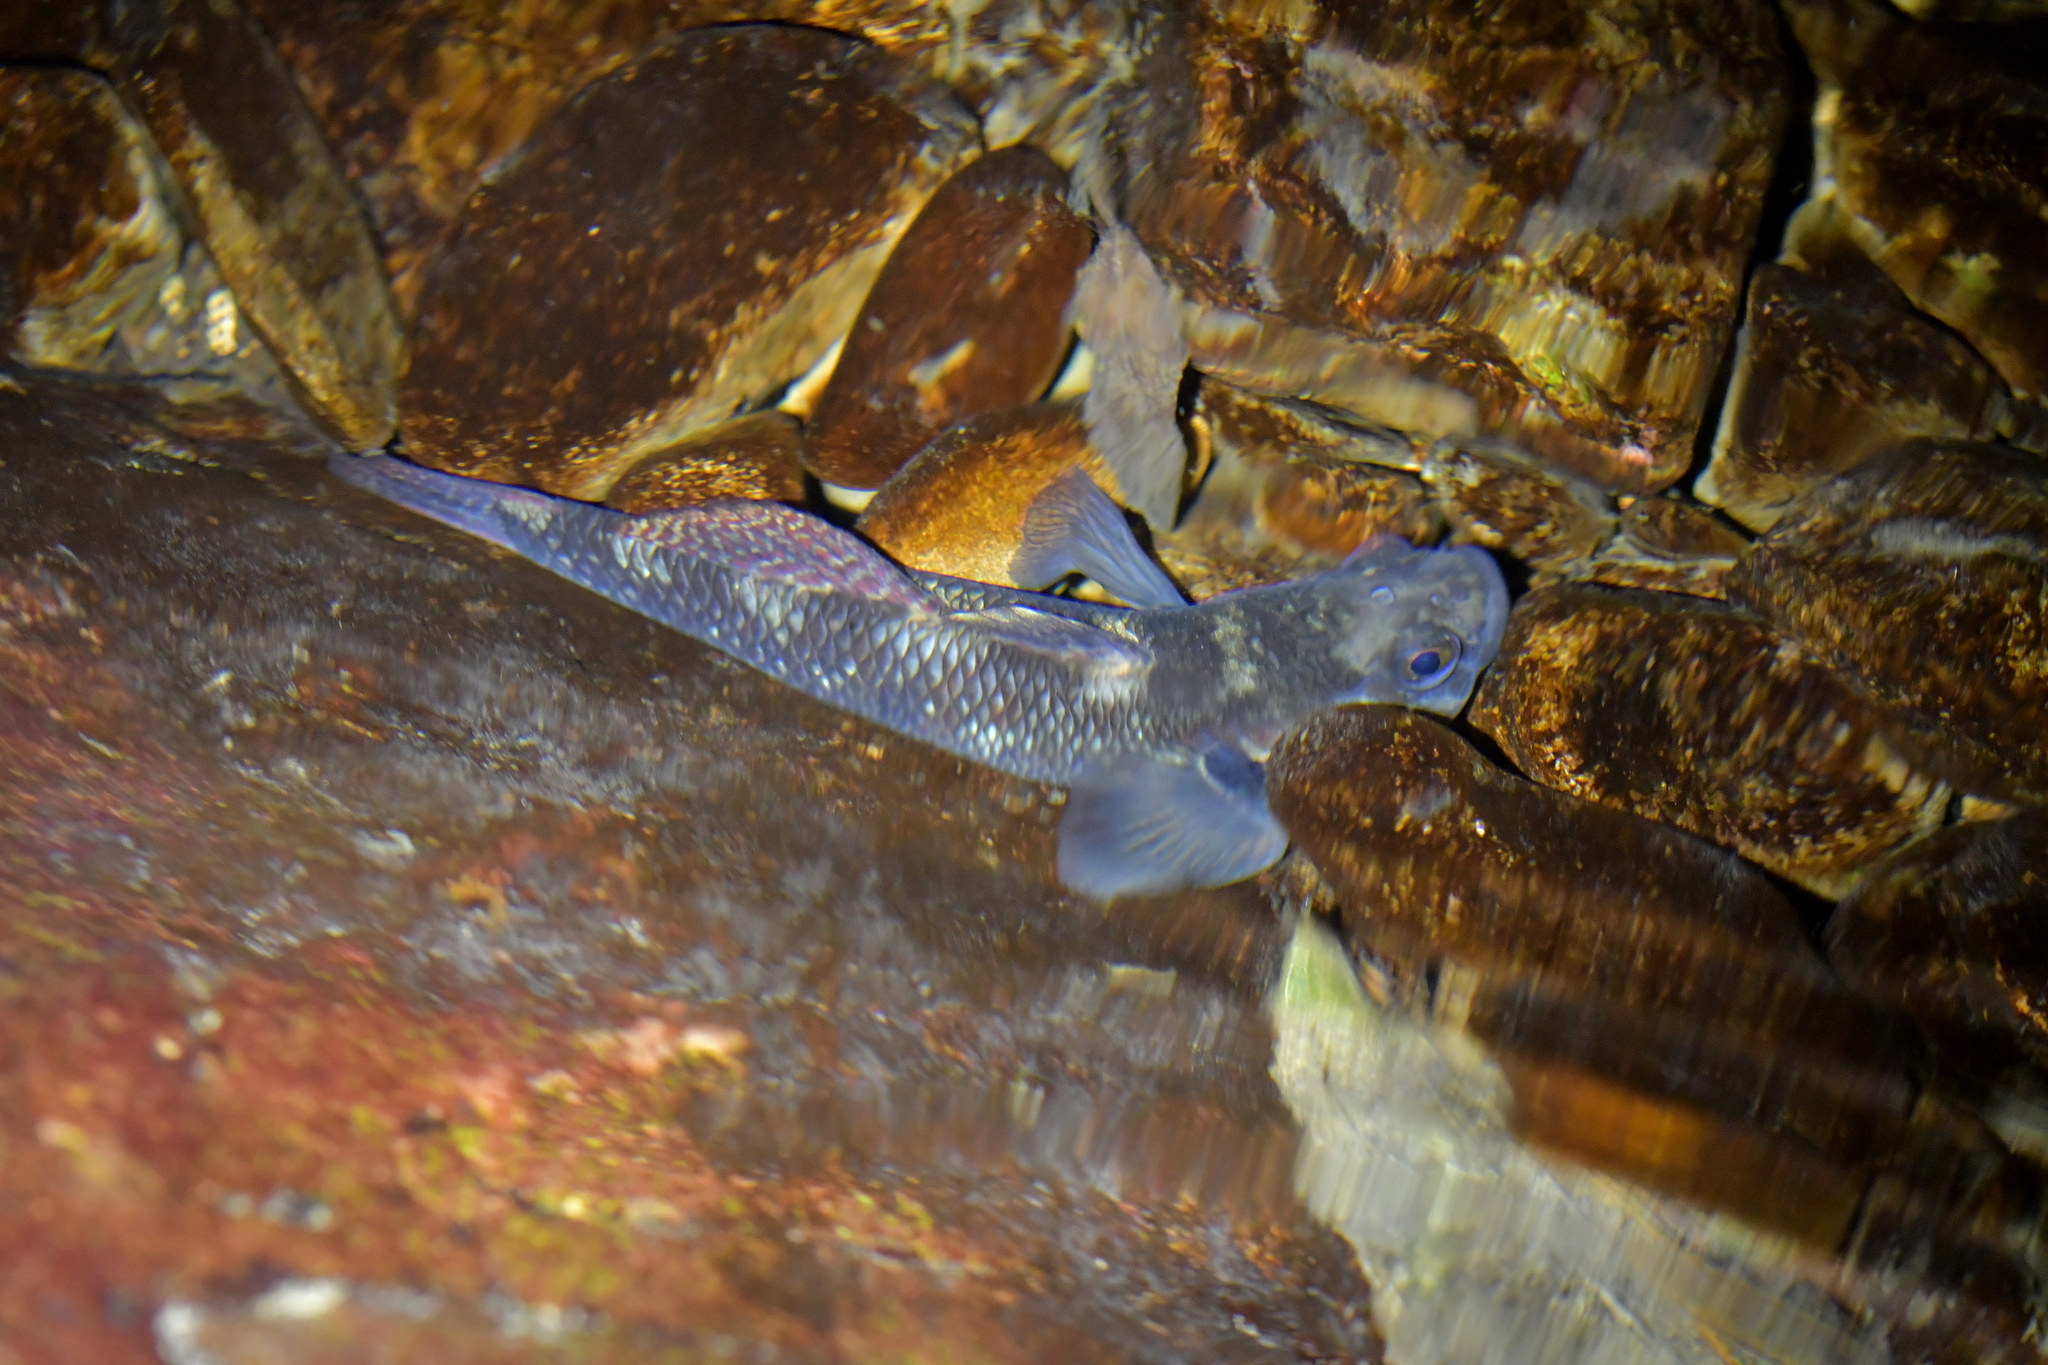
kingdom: Animalia
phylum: Chordata
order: Perciformes
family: Eleotridae
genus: Gobiomorphus
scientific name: Gobiomorphus huttoni
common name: Redfin bully
